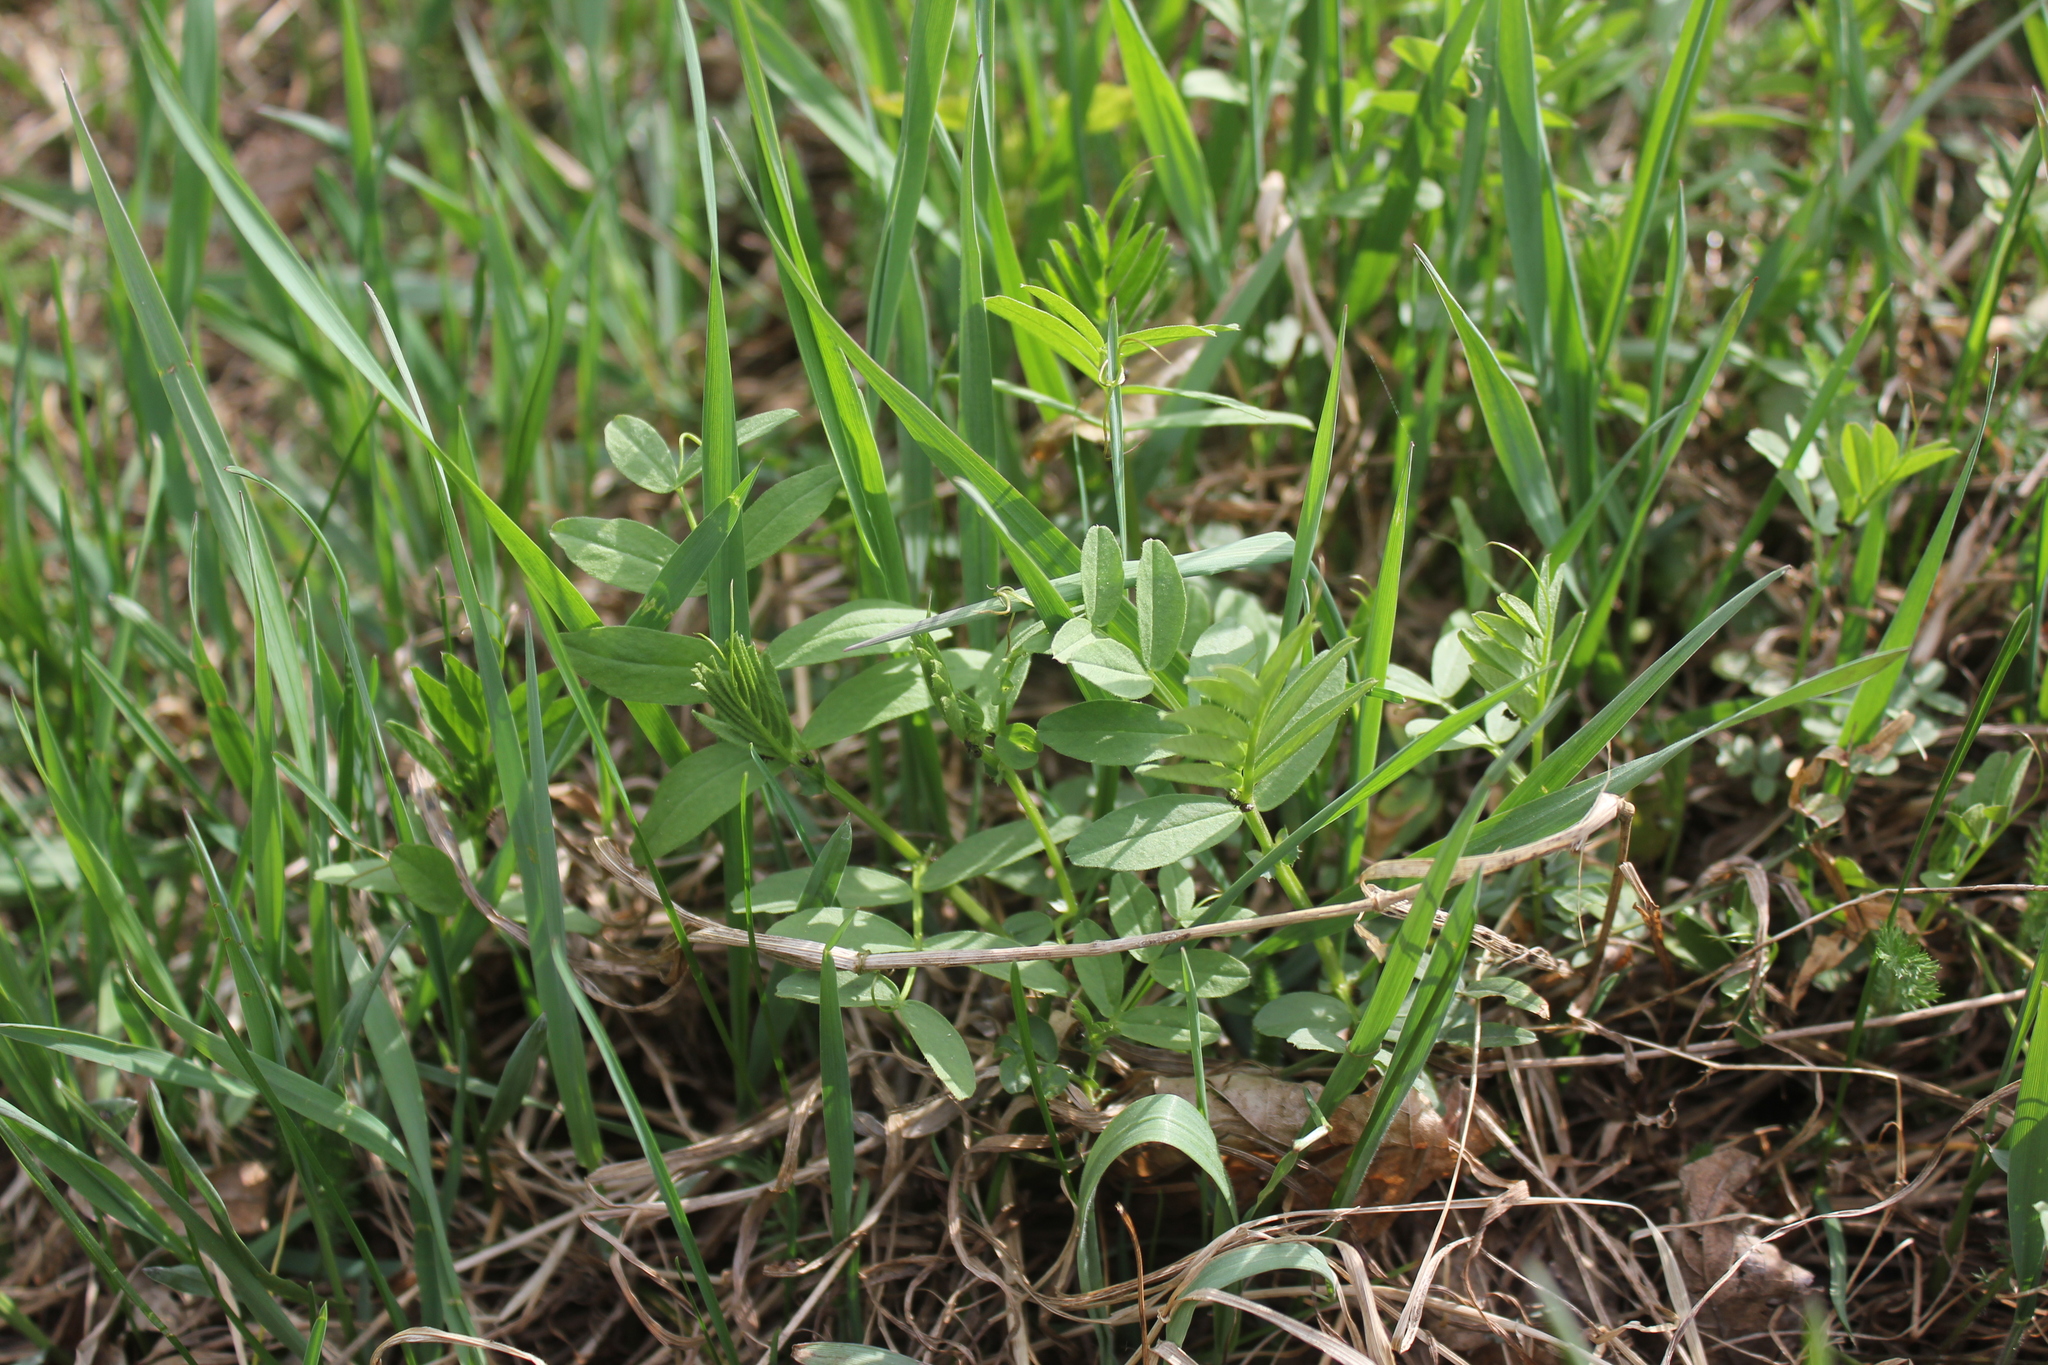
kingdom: Plantae
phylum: Tracheophyta
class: Magnoliopsida
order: Fabales
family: Fabaceae
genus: Vicia
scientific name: Vicia sepium
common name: Bush vetch
